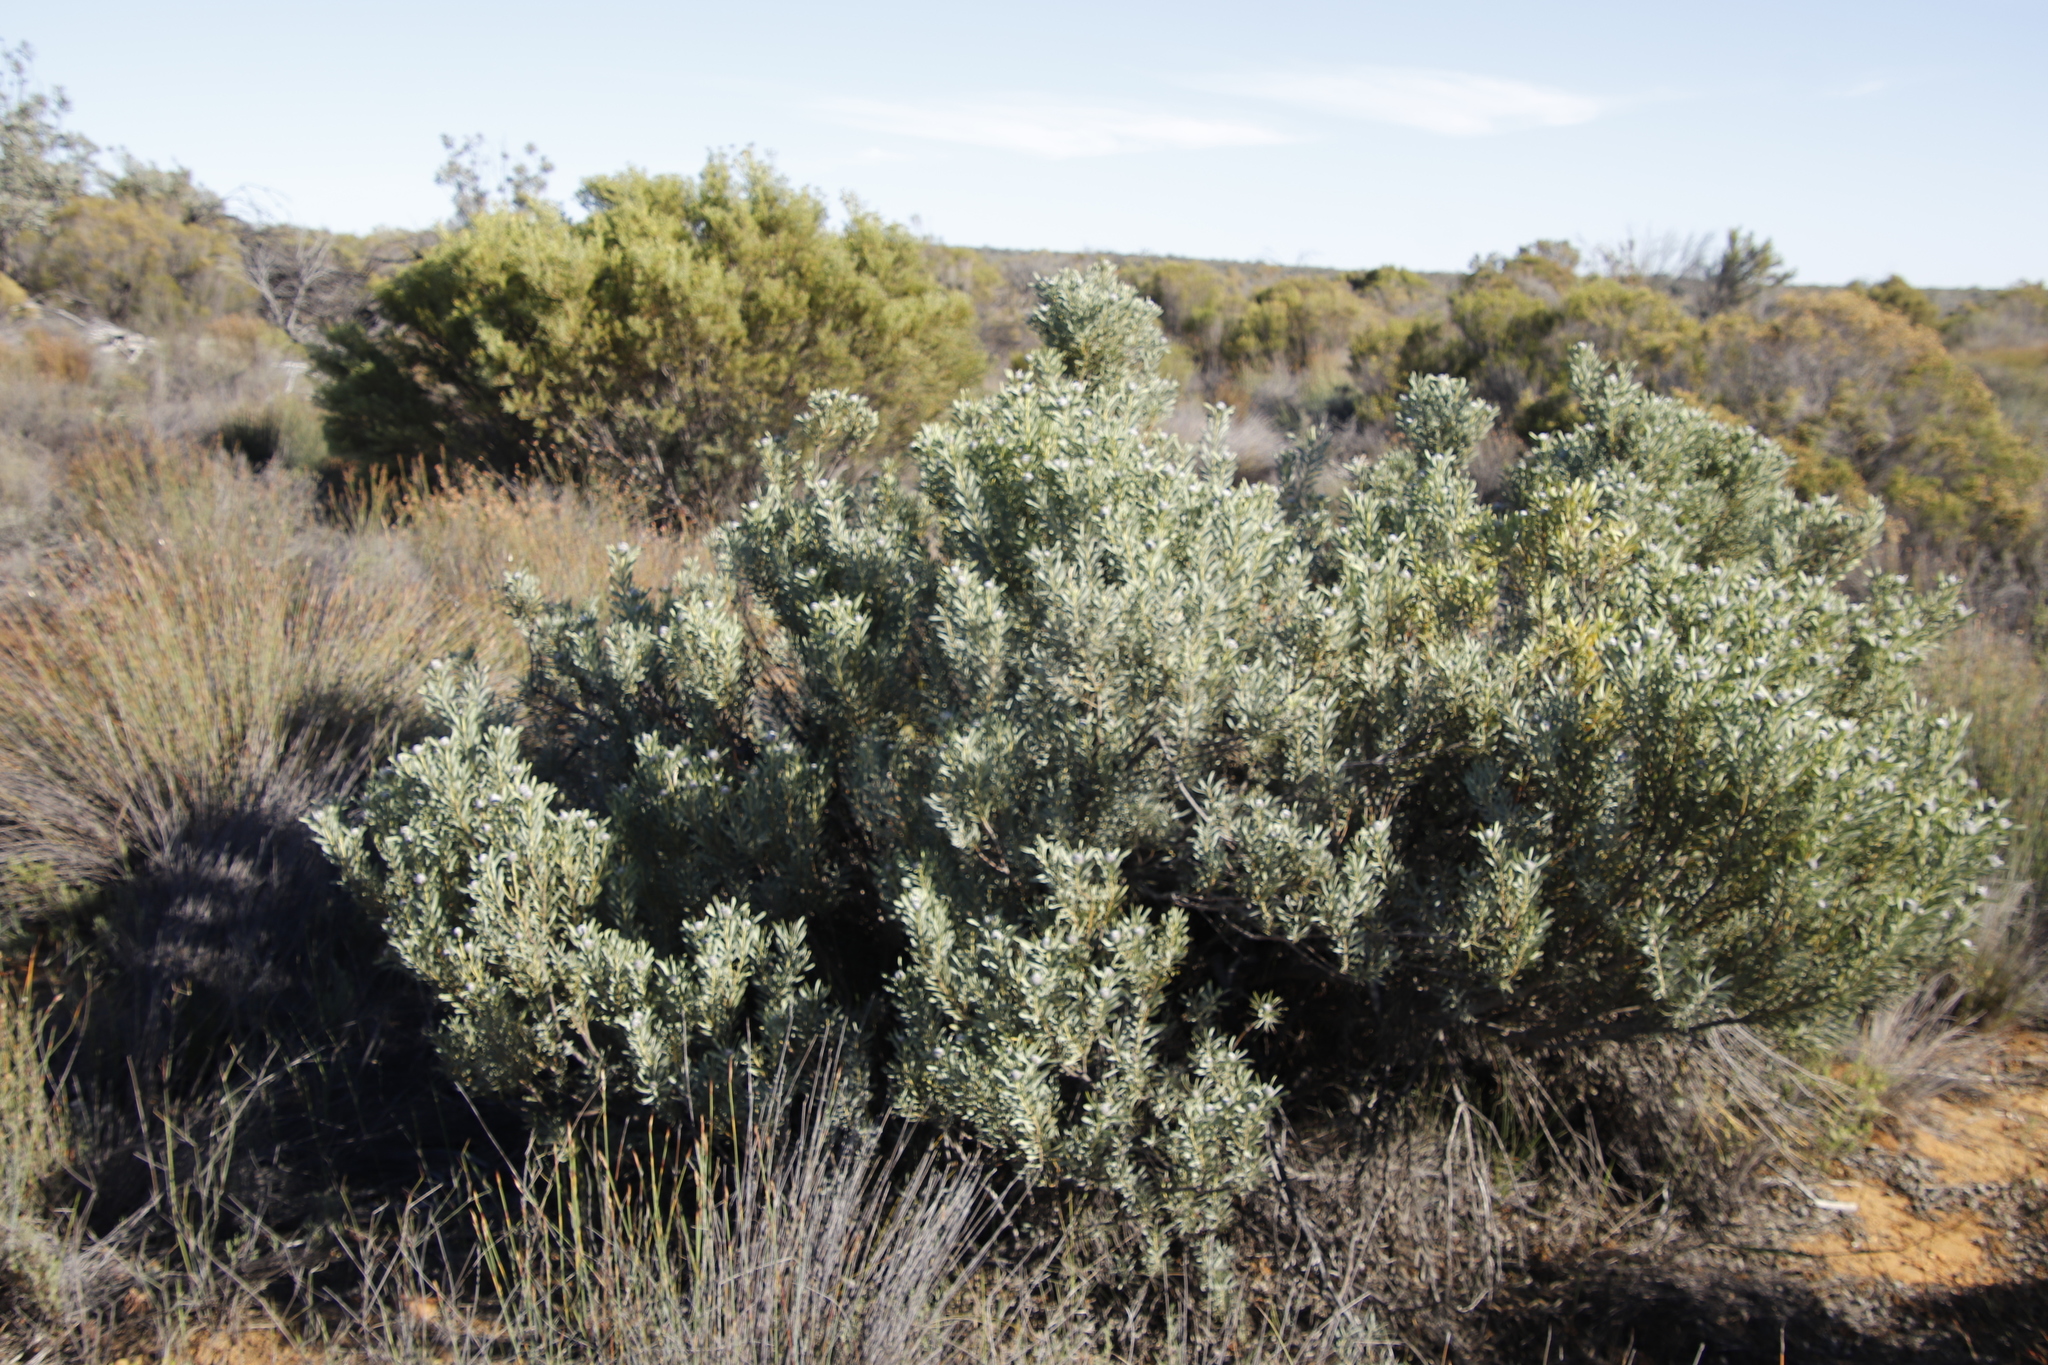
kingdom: Plantae
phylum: Tracheophyta
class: Magnoliopsida
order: Proteales
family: Proteaceae
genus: Leucadendron
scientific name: Leucadendron pubescens
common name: Grey conebush
